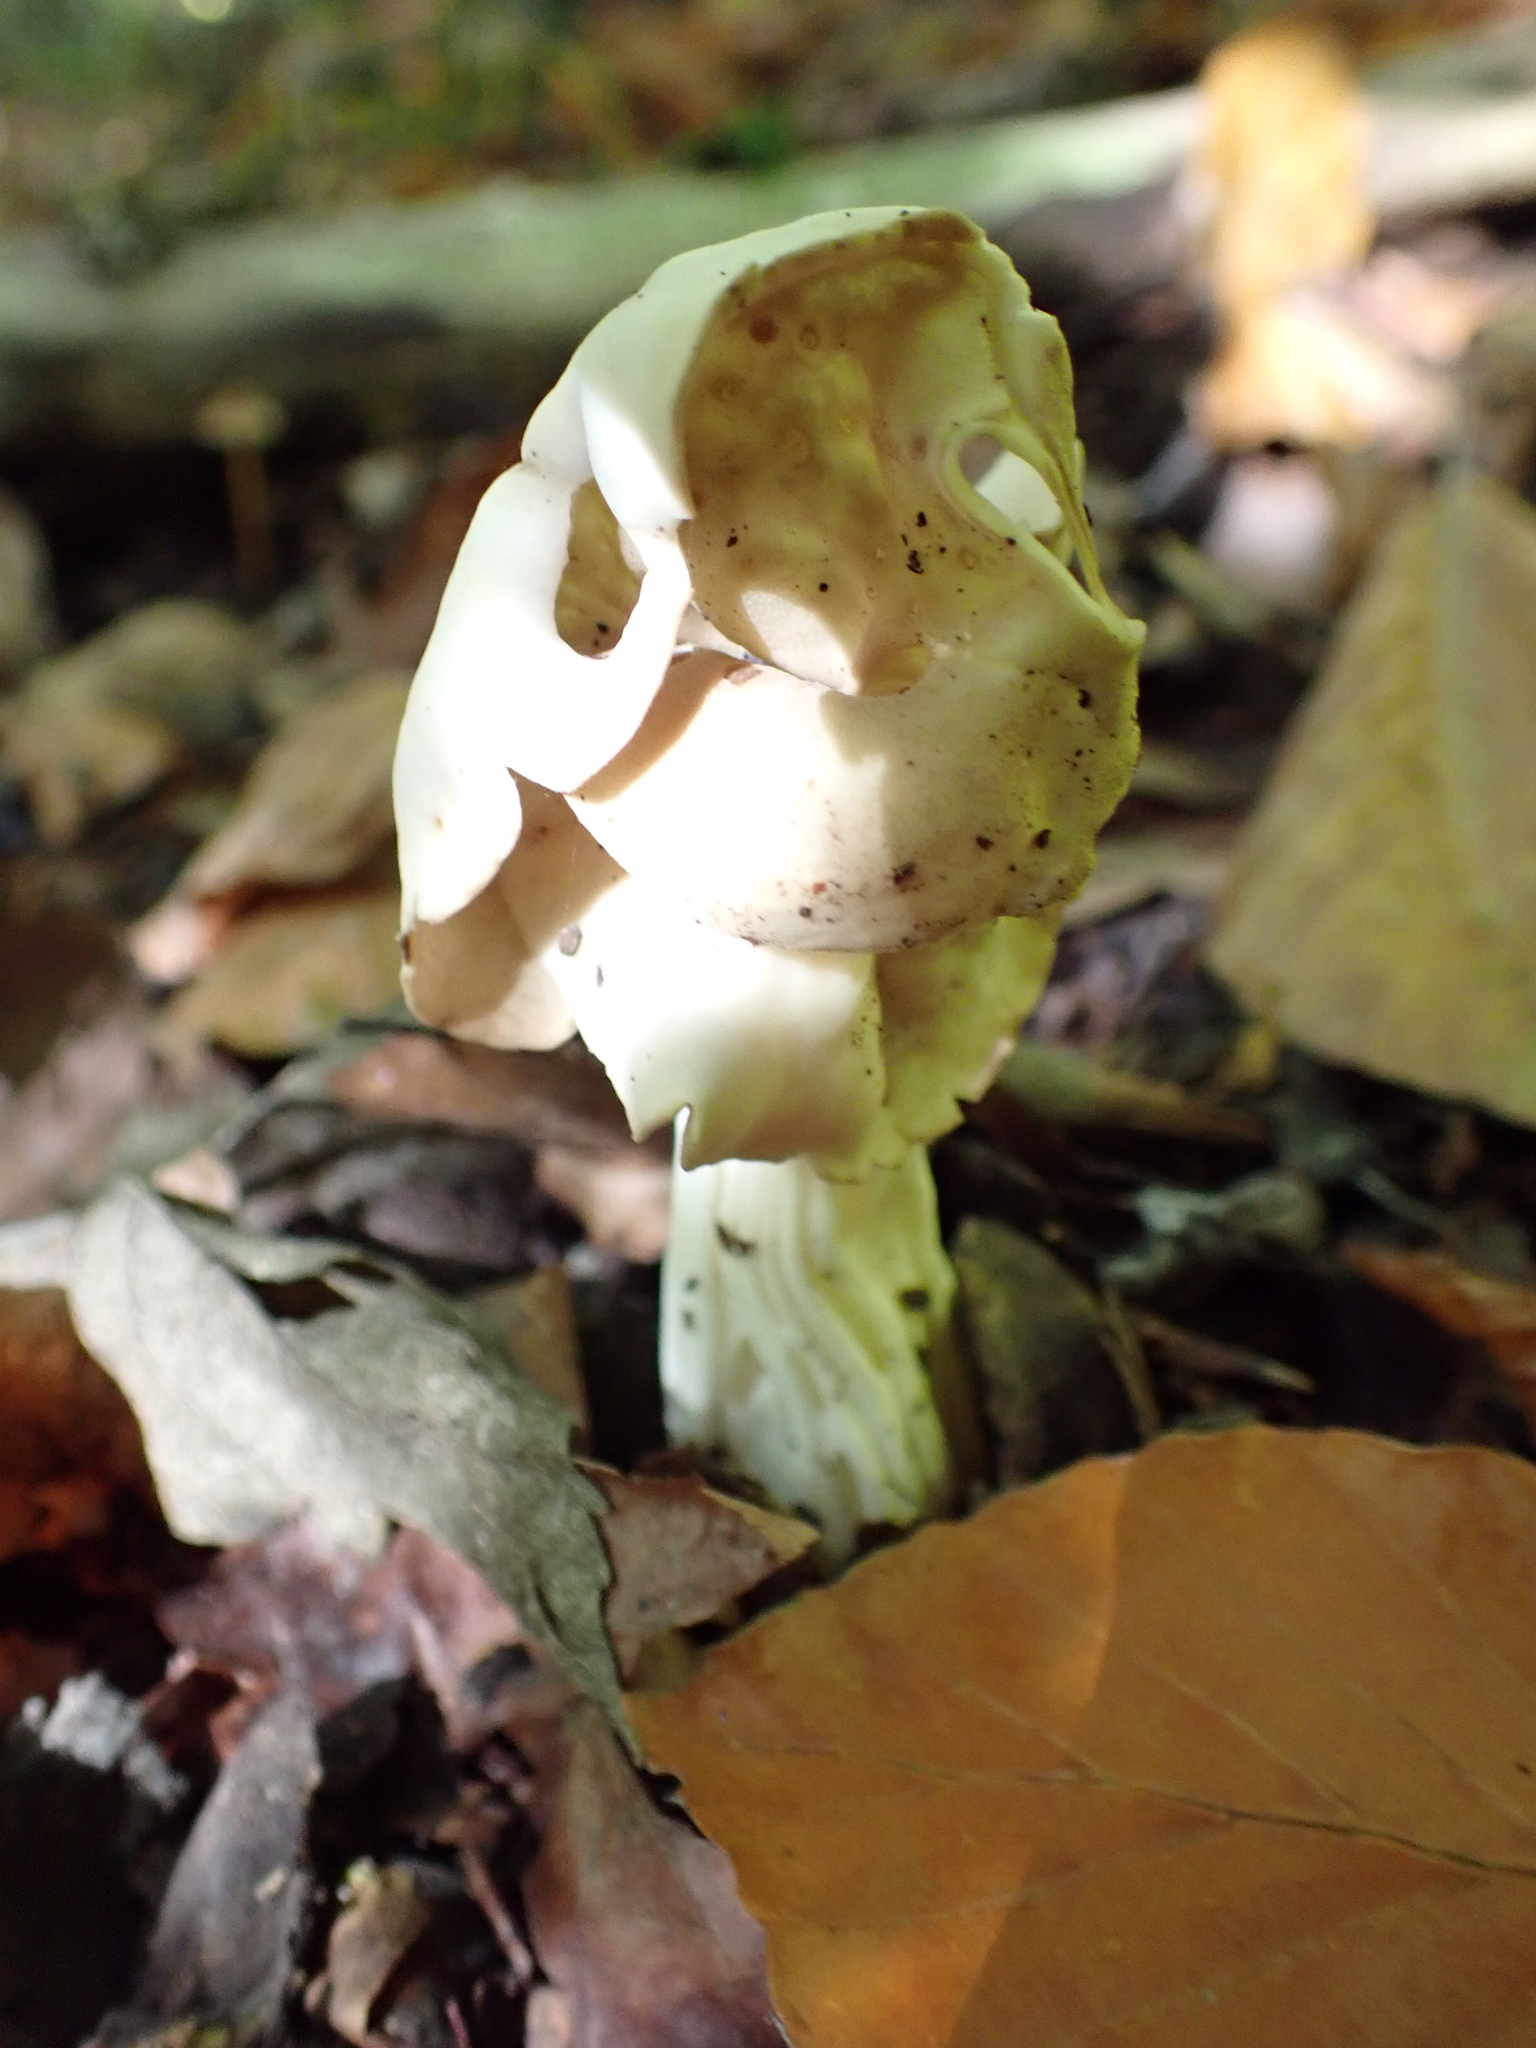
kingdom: Fungi
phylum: Ascomycota
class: Pezizomycetes
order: Pezizales
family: Helvellaceae
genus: Helvella
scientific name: Helvella crispa
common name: White saddle
